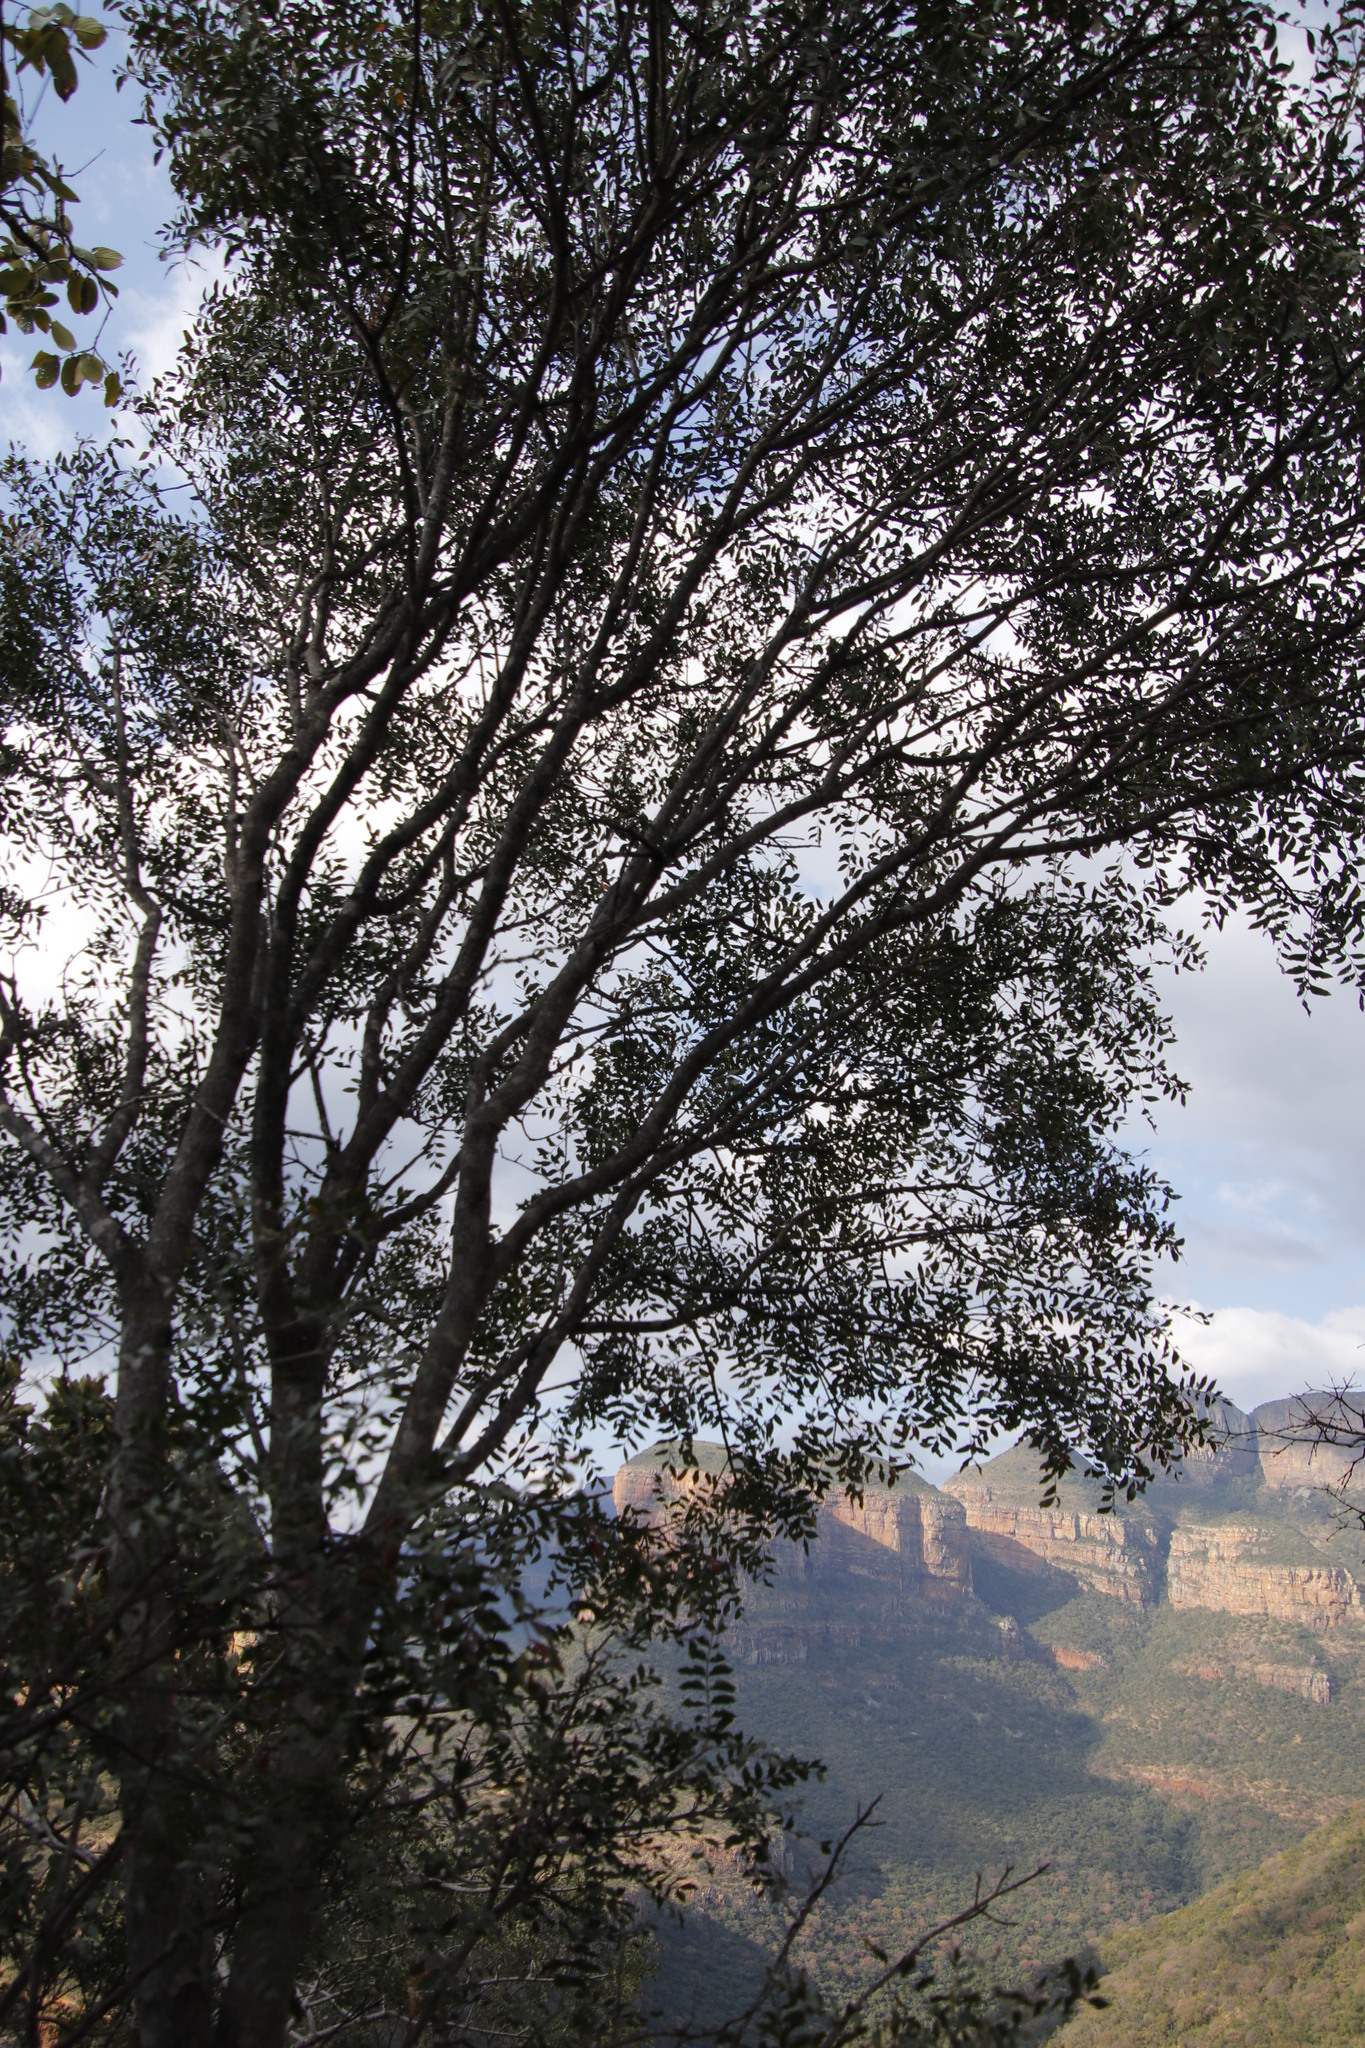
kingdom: Plantae
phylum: Tracheophyta
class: Magnoliopsida
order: Sapindales
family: Rutaceae
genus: Ptaeroxylon
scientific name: Ptaeroxylon obliquum
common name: Sneezewood
